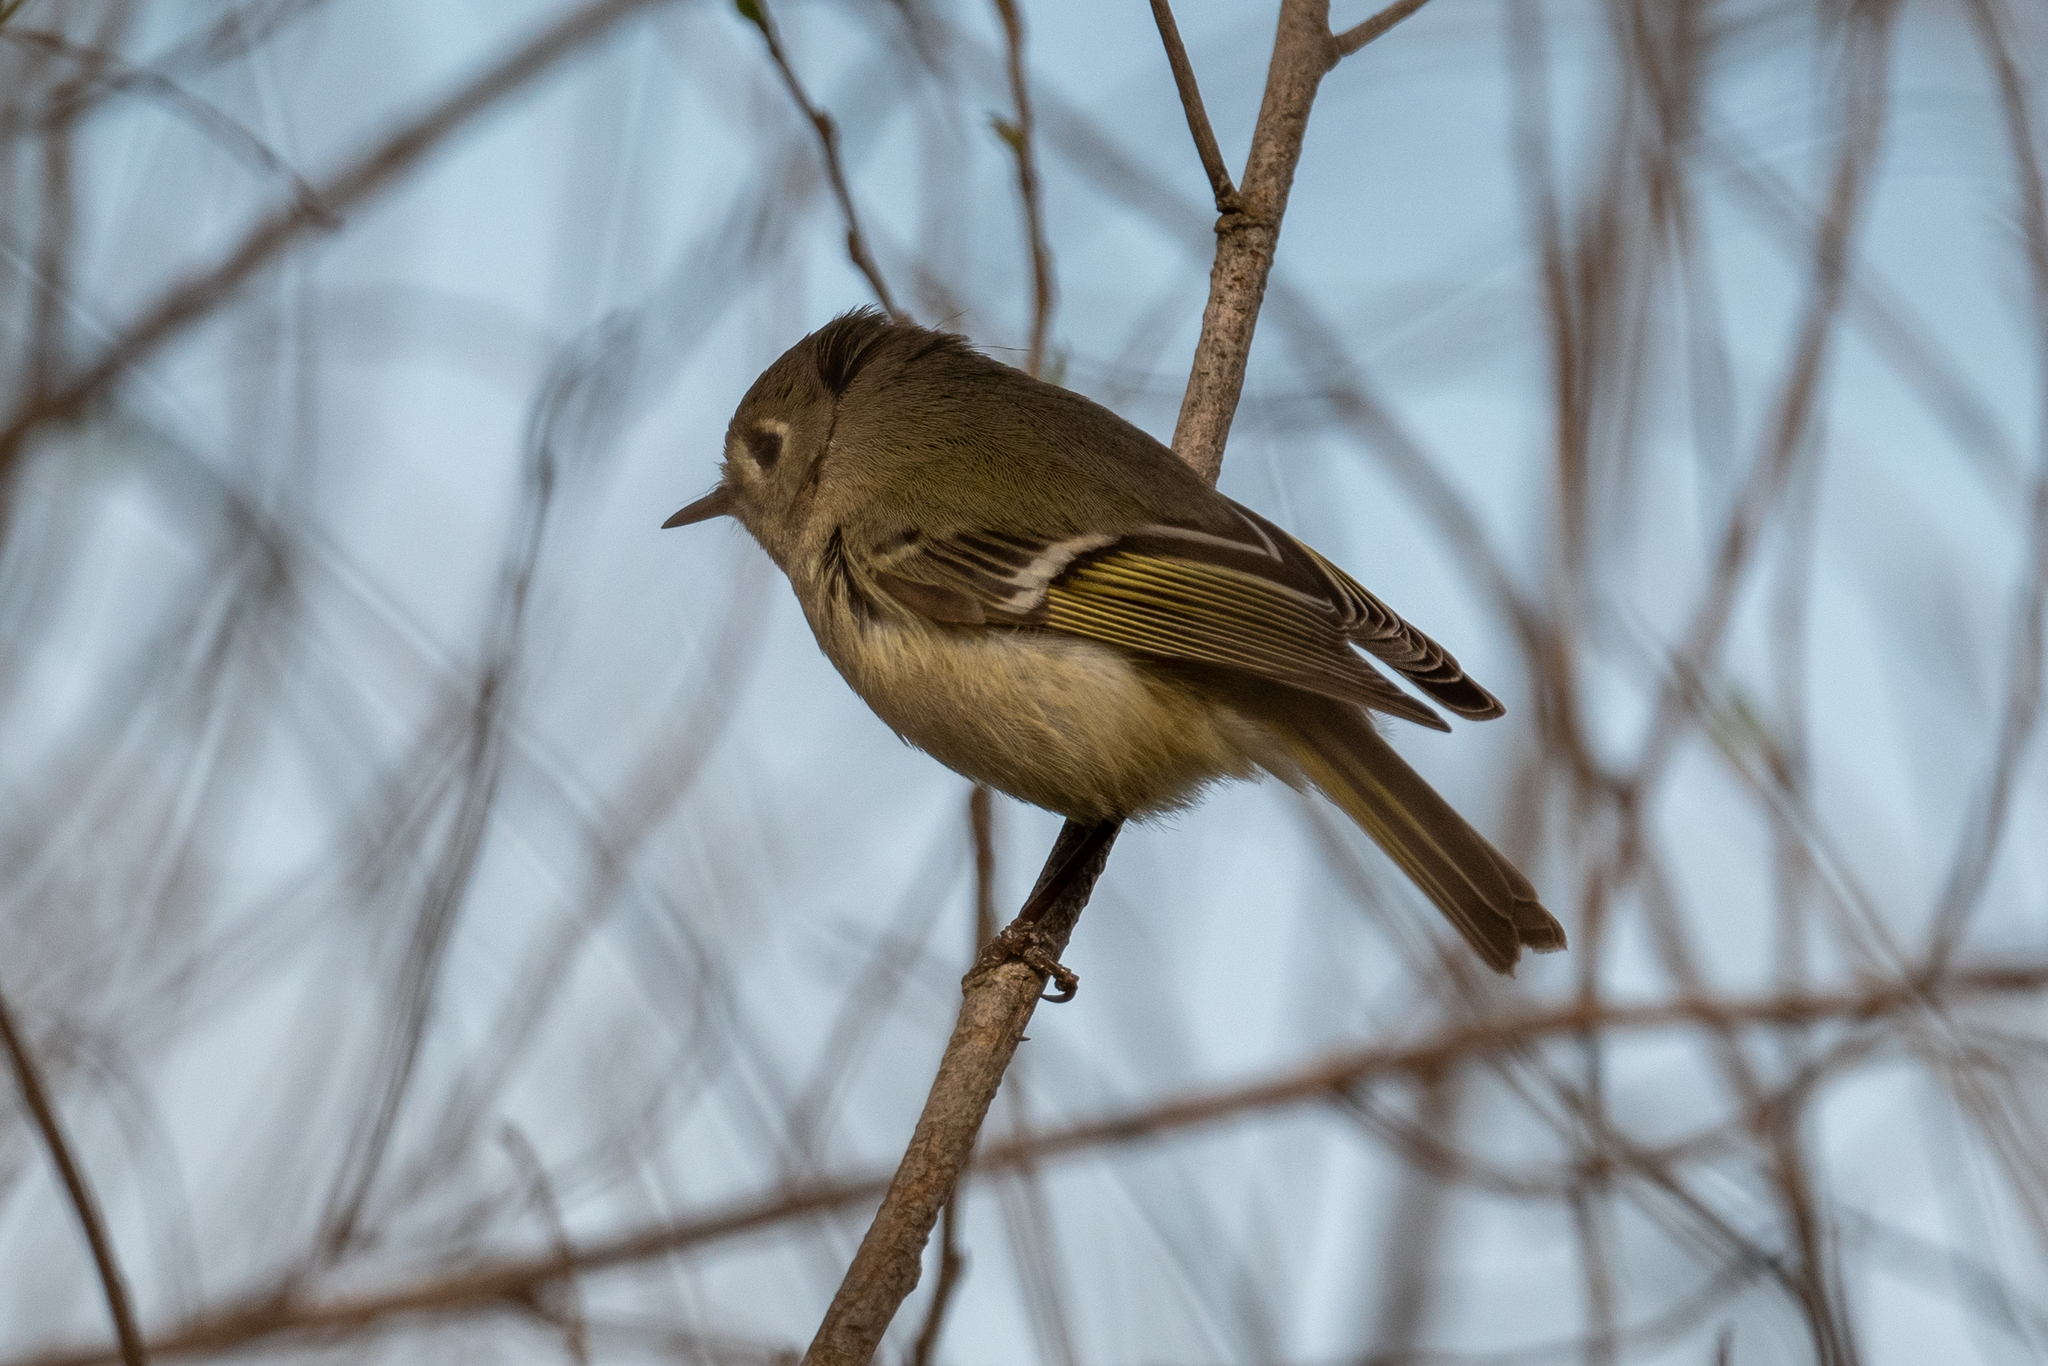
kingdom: Animalia
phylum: Chordata
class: Aves
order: Passeriformes
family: Regulidae
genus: Regulus
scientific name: Regulus calendula
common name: Ruby-crowned kinglet
